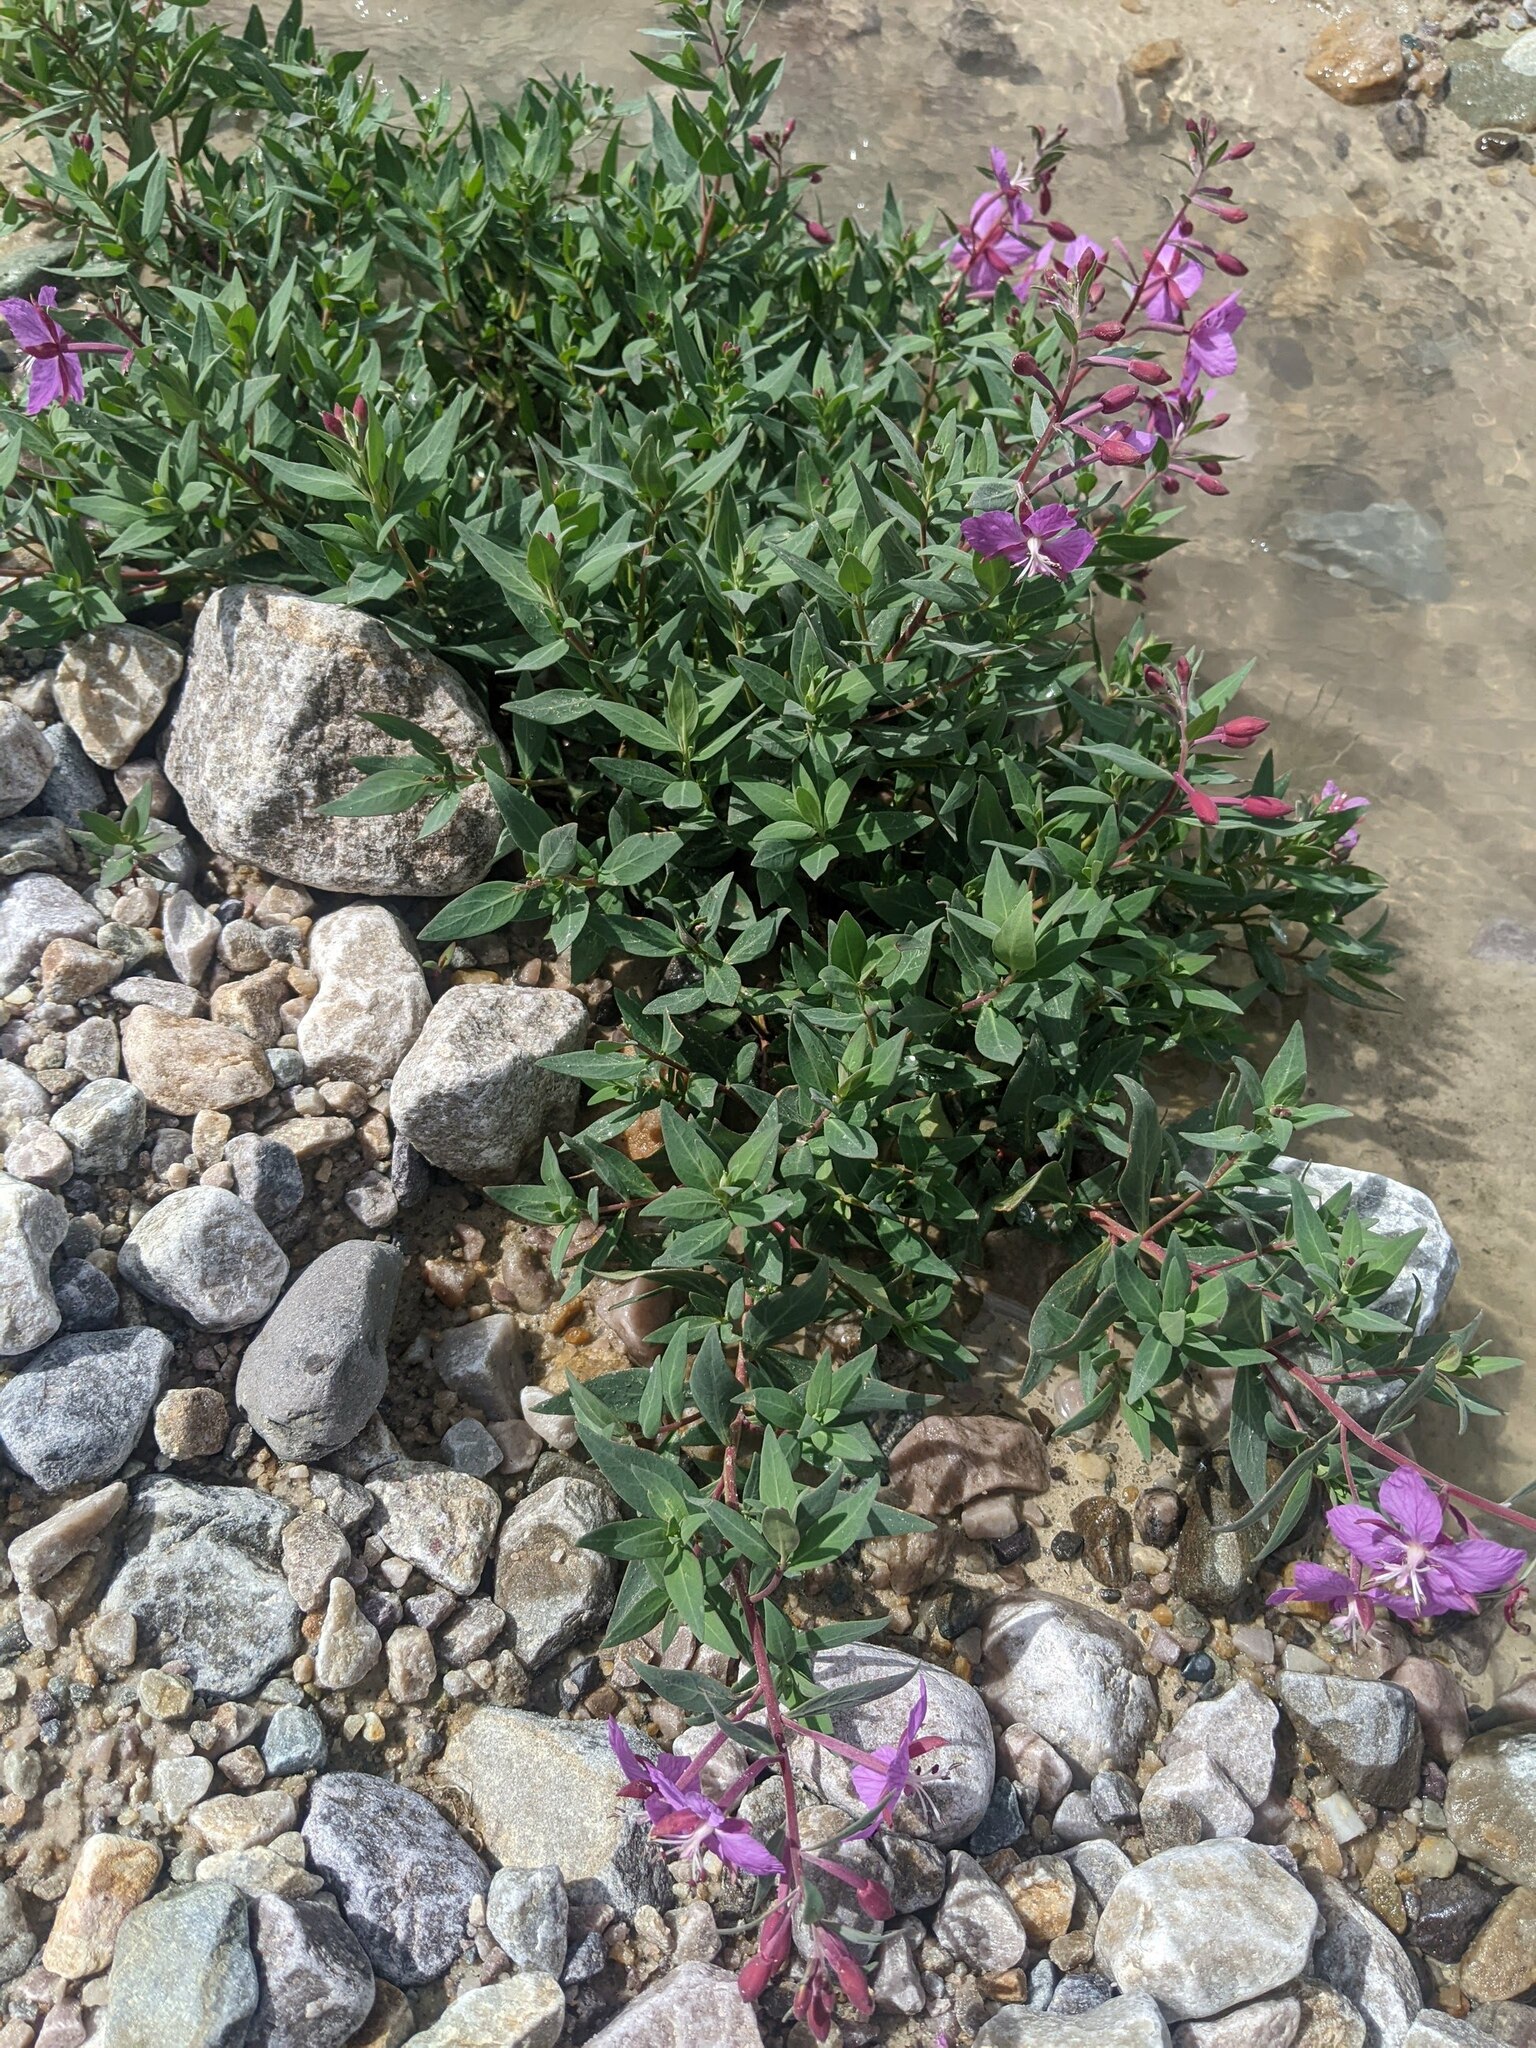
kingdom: Plantae
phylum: Tracheophyta
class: Magnoliopsida
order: Myrtales
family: Onagraceae
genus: Chamaenerion
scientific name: Chamaenerion latifolium
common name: Dwarf fireweed
